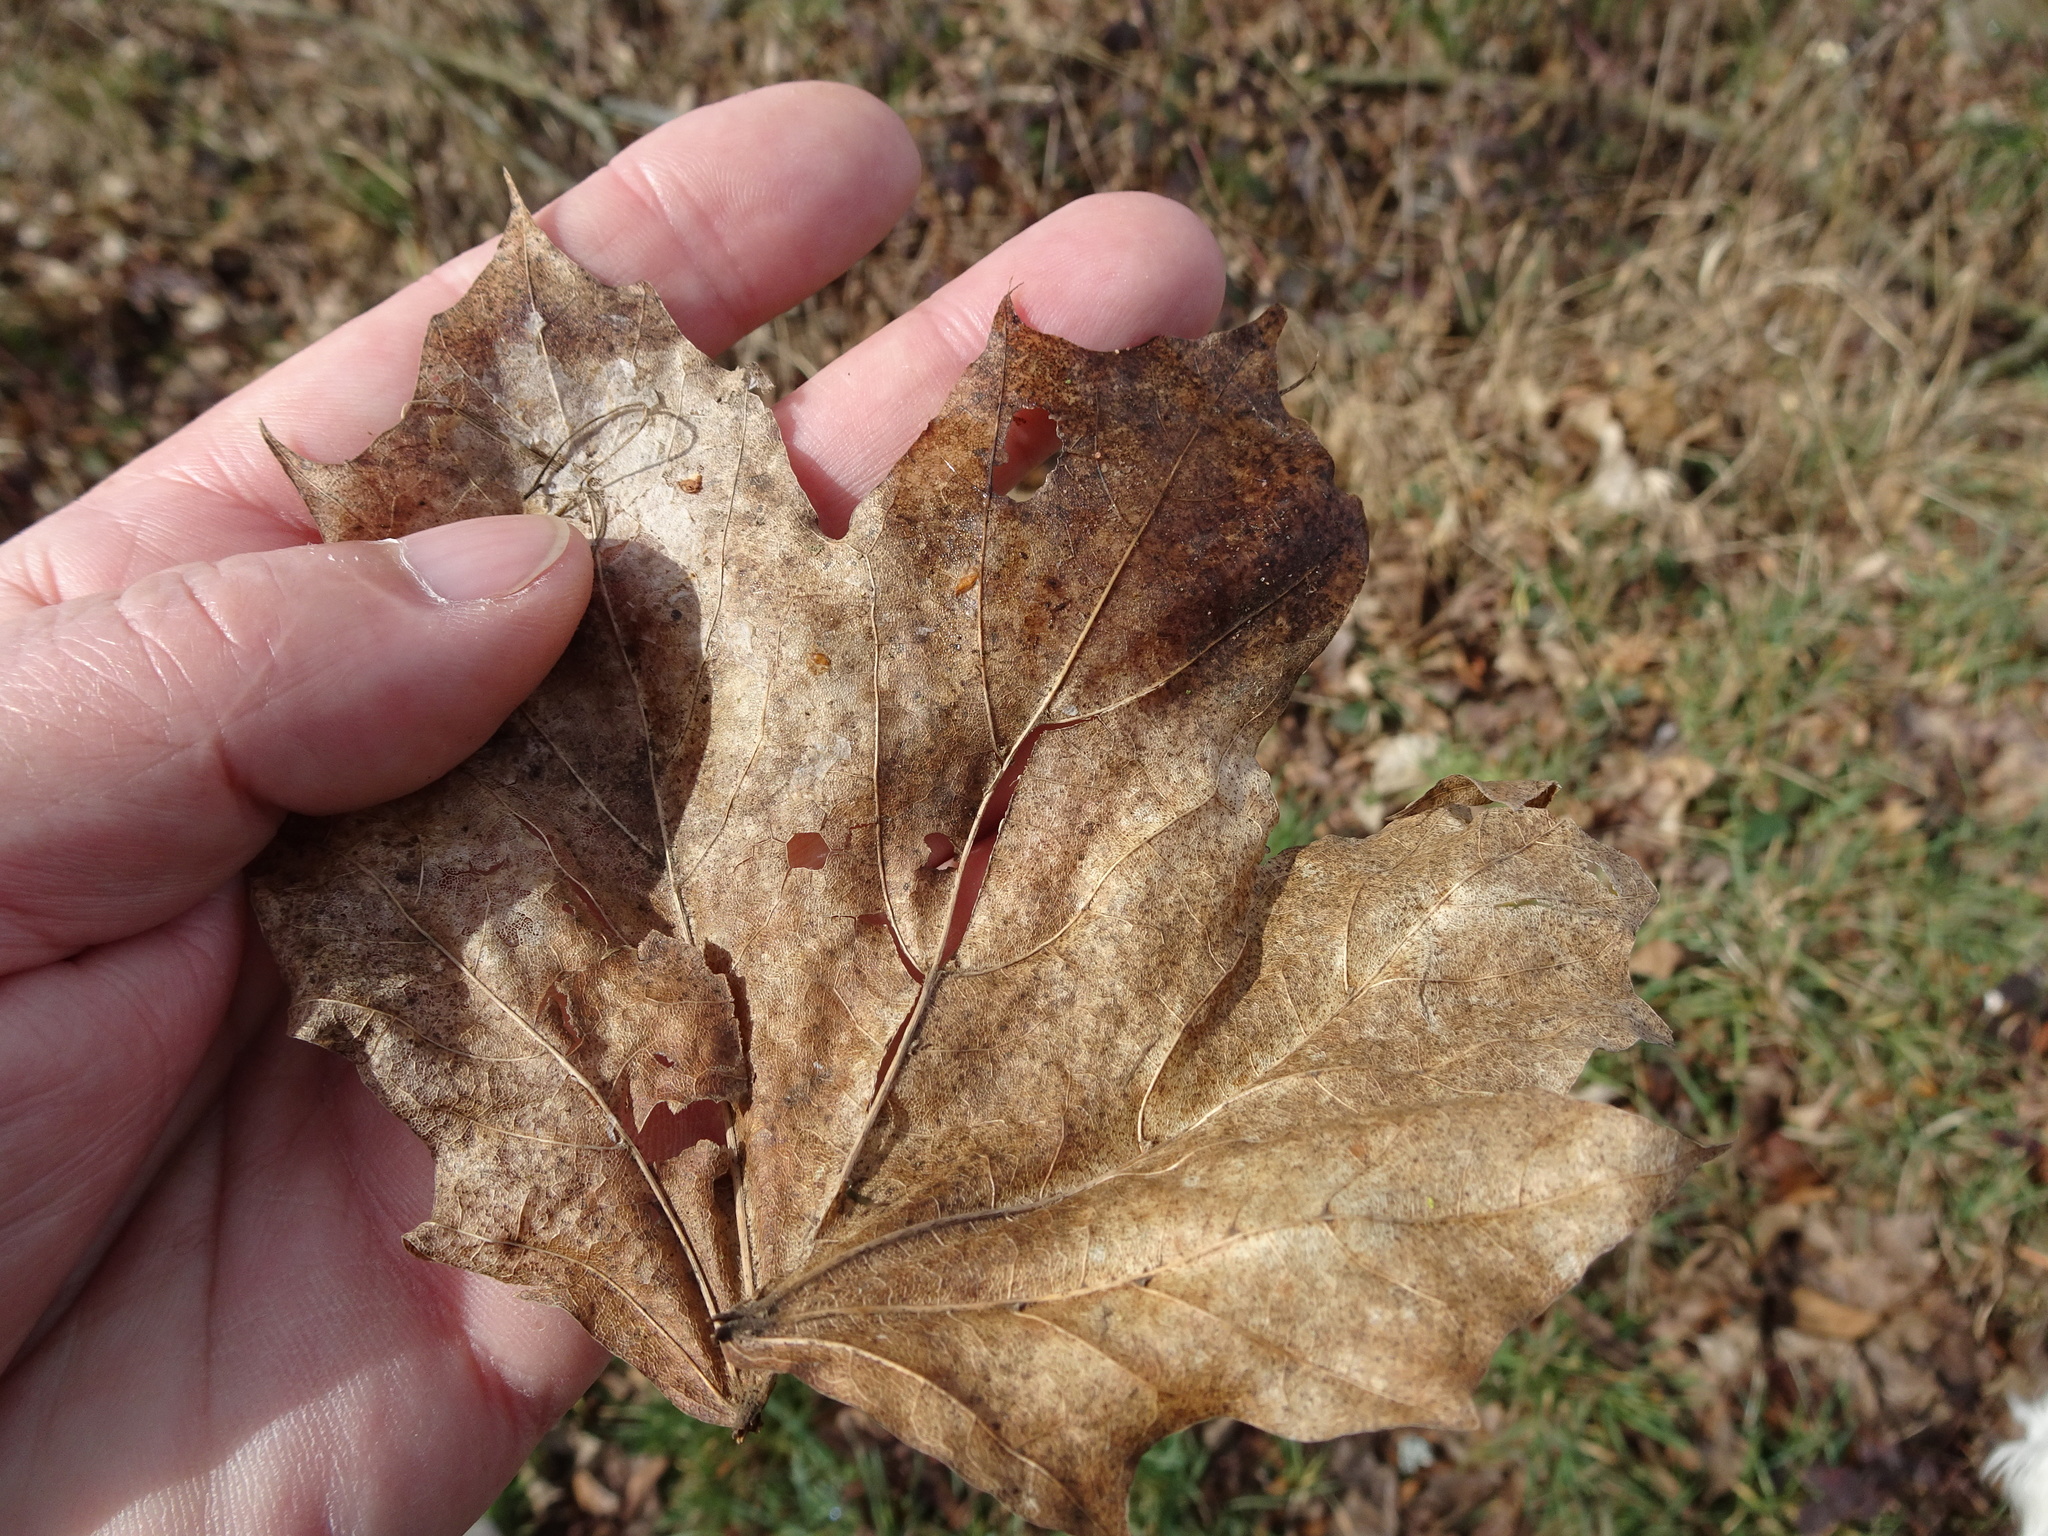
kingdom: Plantae
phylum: Tracheophyta
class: Magnoliopsida
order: Sapindales
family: Sapindaceae
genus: Acer
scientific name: Acer platanoides
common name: Norway maple
